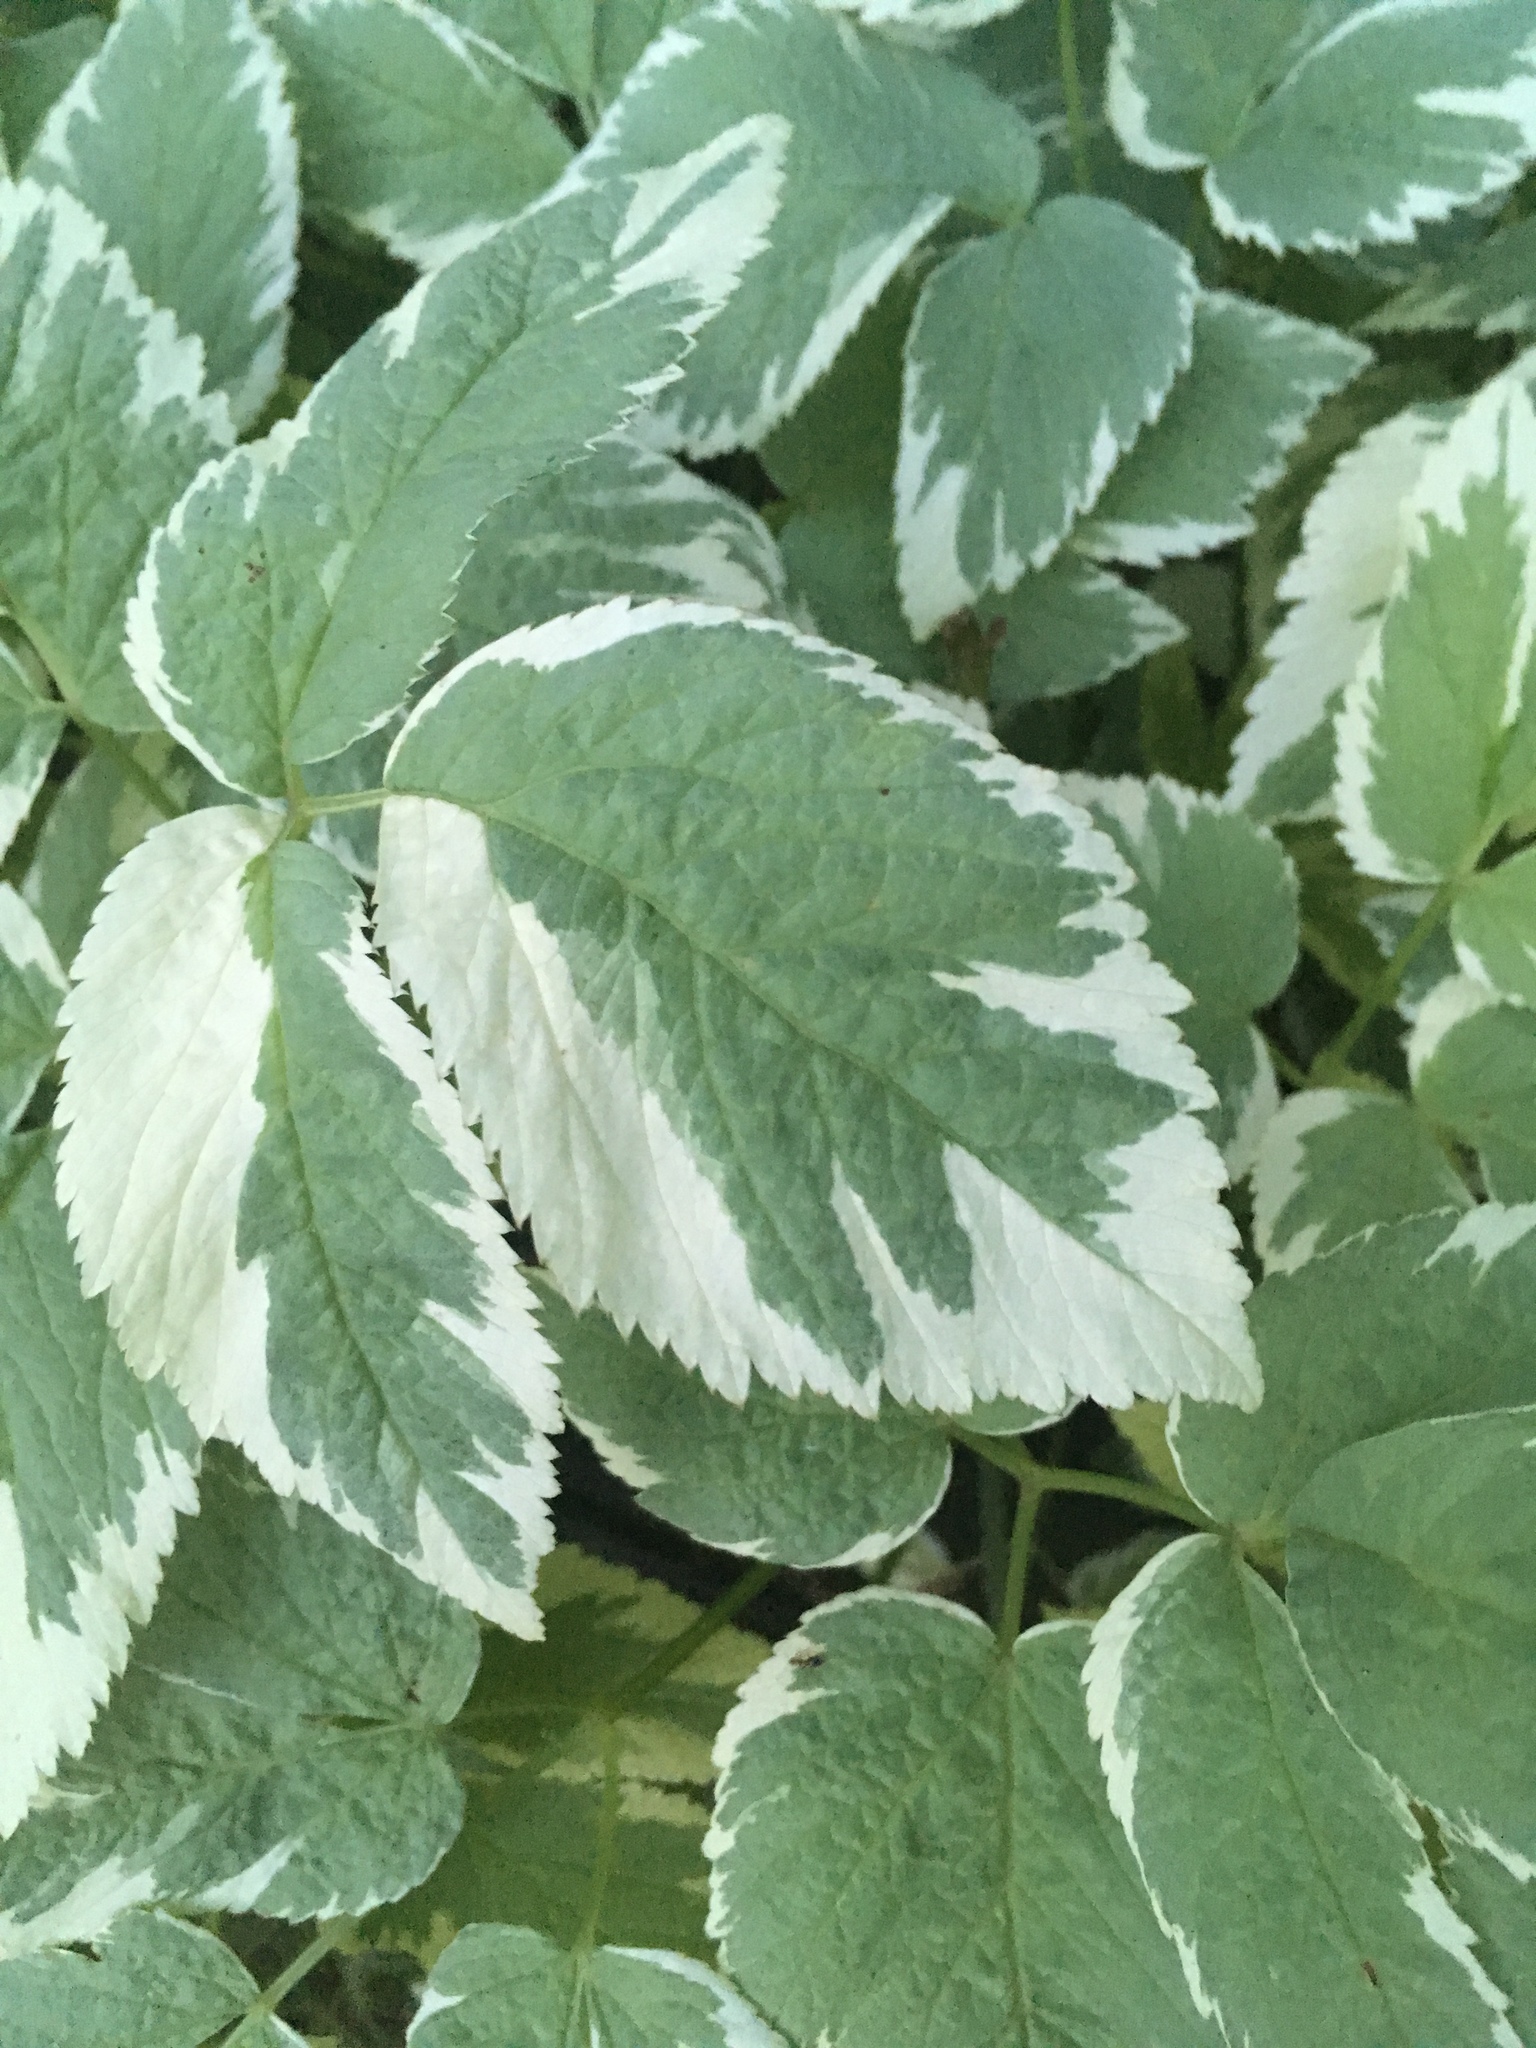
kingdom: Plantae
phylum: Tracheophyta
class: Magnoliopsida
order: Apiales
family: Apiaceae
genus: Aegopodium
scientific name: Aegopodium podagraria
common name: Ground-elder
